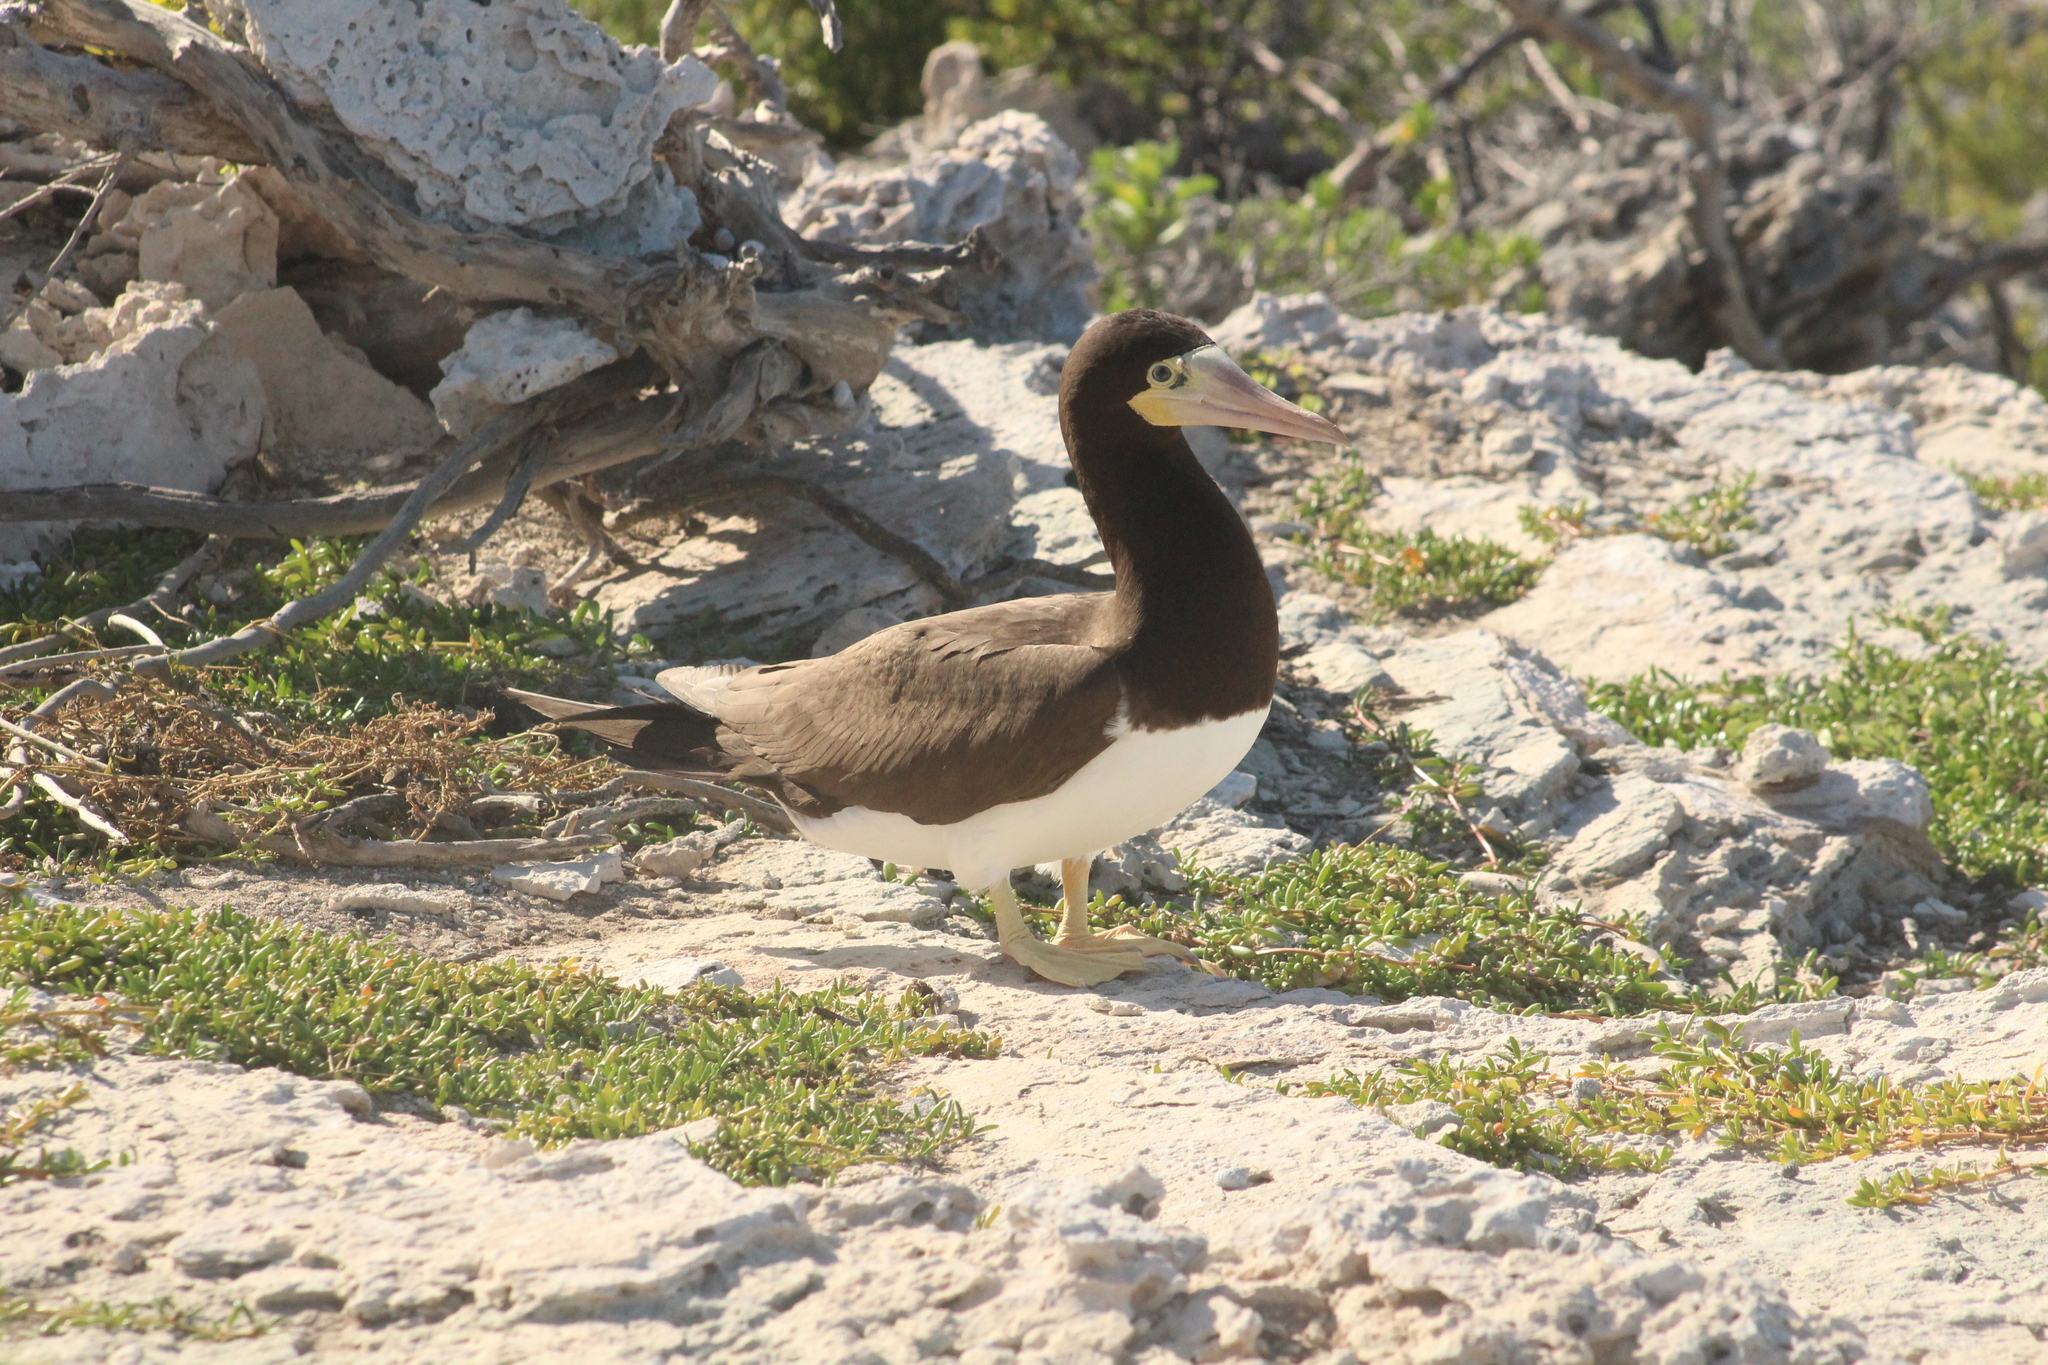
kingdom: Animalia
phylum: Chordata
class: Aves
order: Suliformes
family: Sulidae
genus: Sula
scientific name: Sula leucogaster
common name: Brown booby
